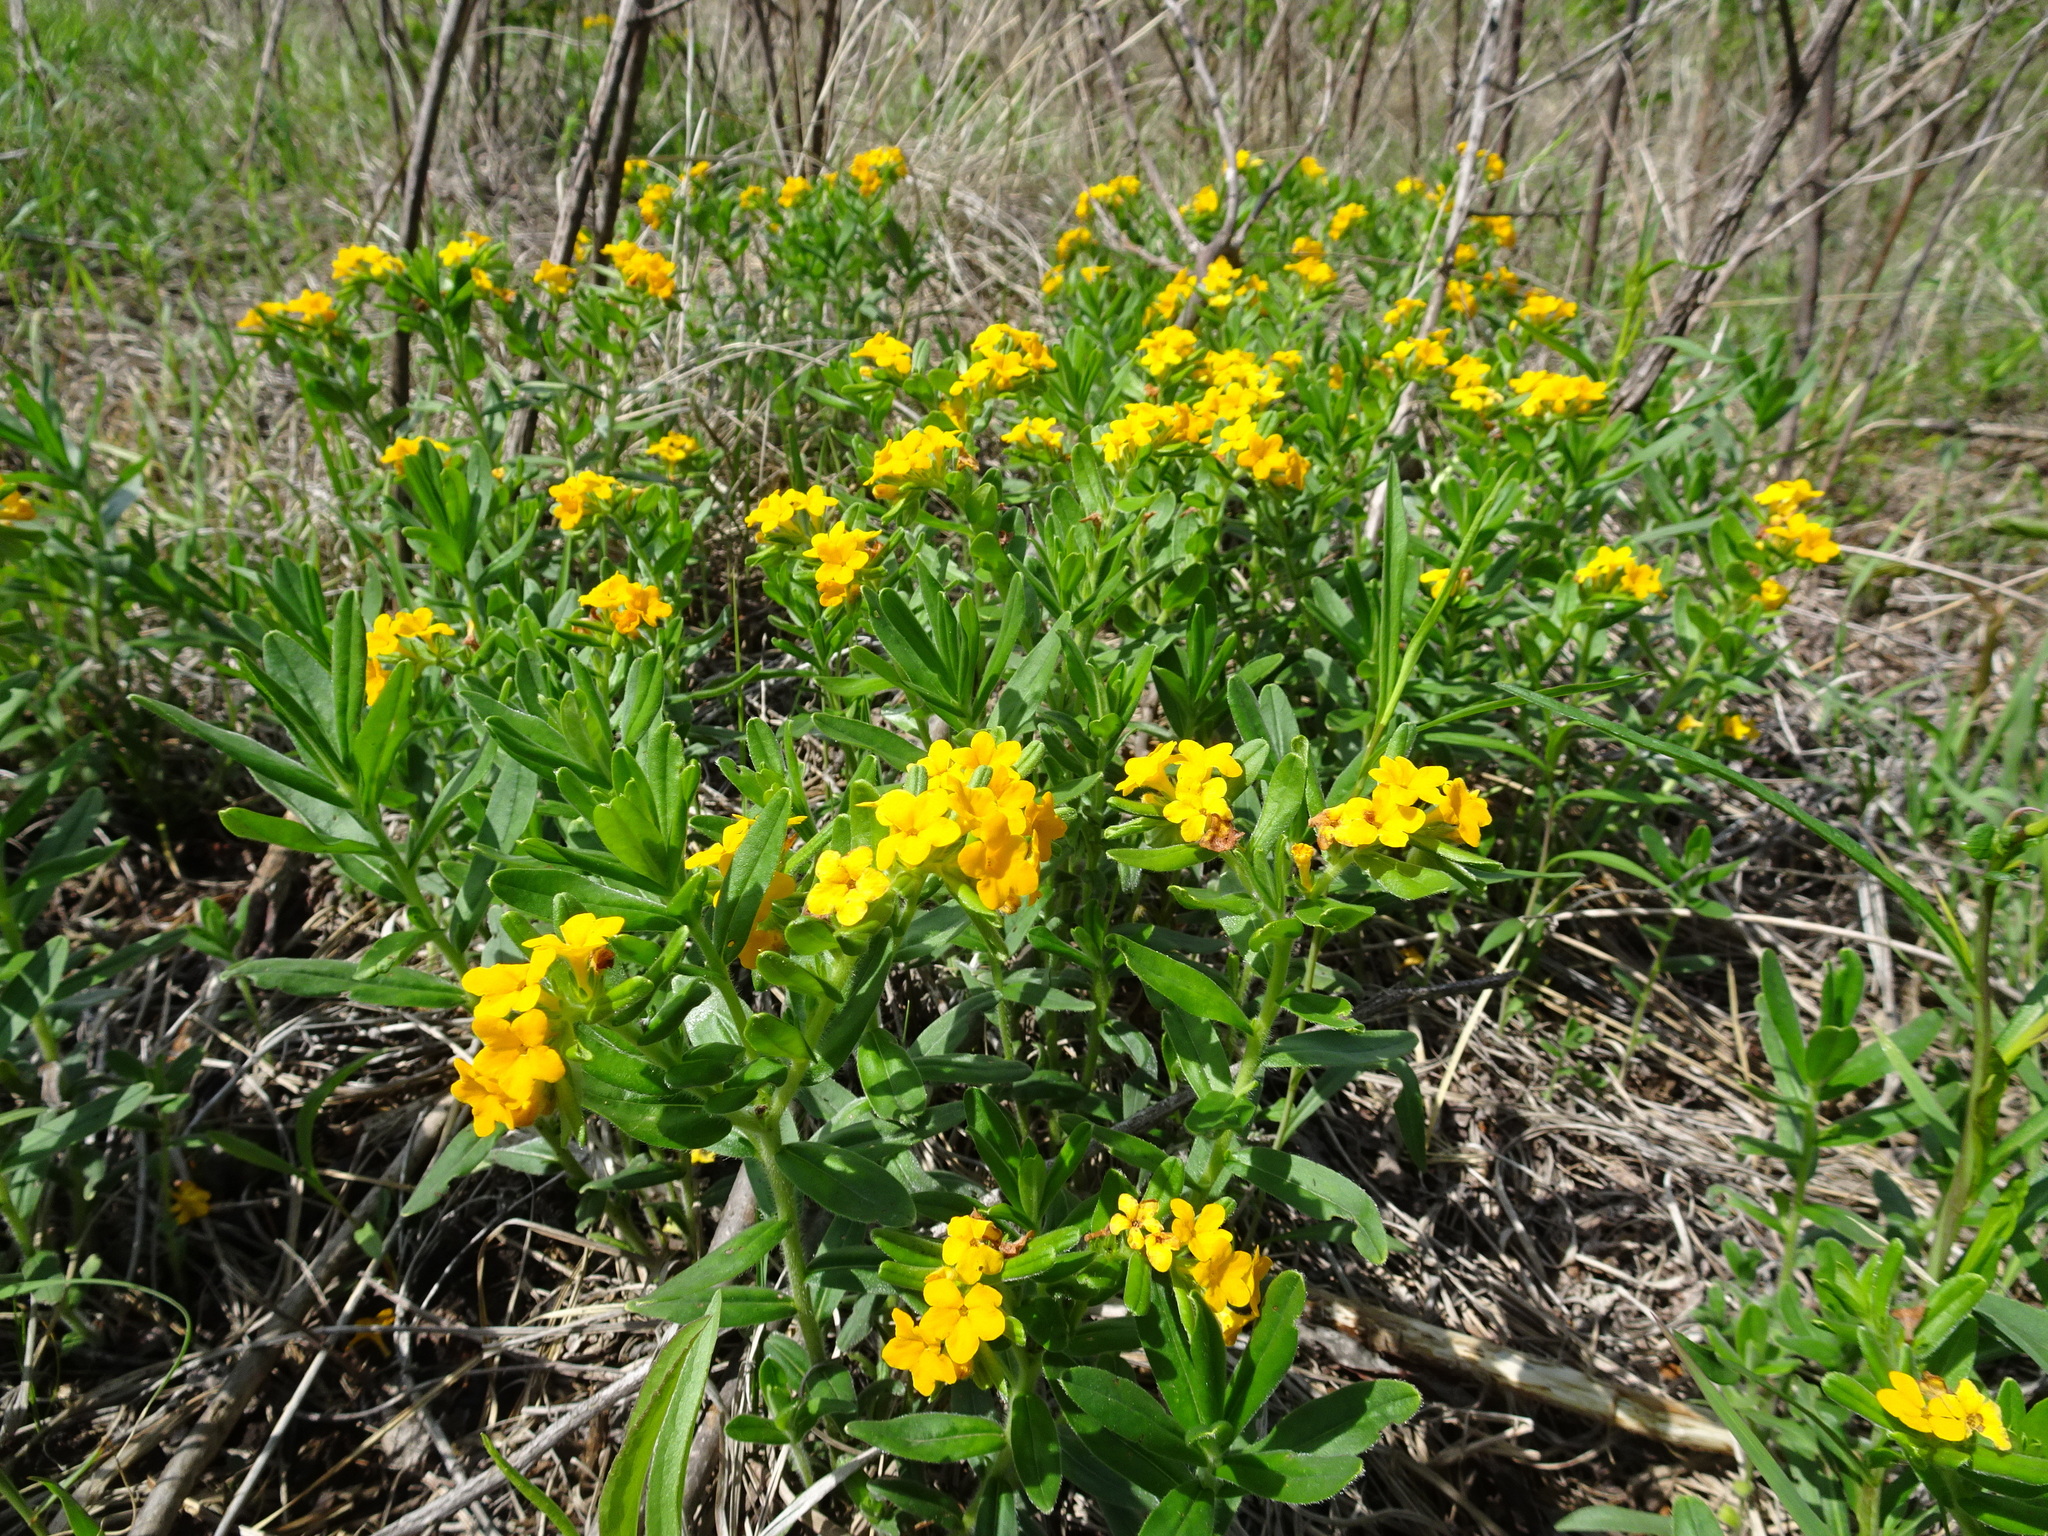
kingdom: Plantae
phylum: Tracheophyta
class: Magnoliopsida
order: Boraginales
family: Boraginaceae
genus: Lithospermum
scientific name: Lithospermum canescens
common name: Hoary puccoon
